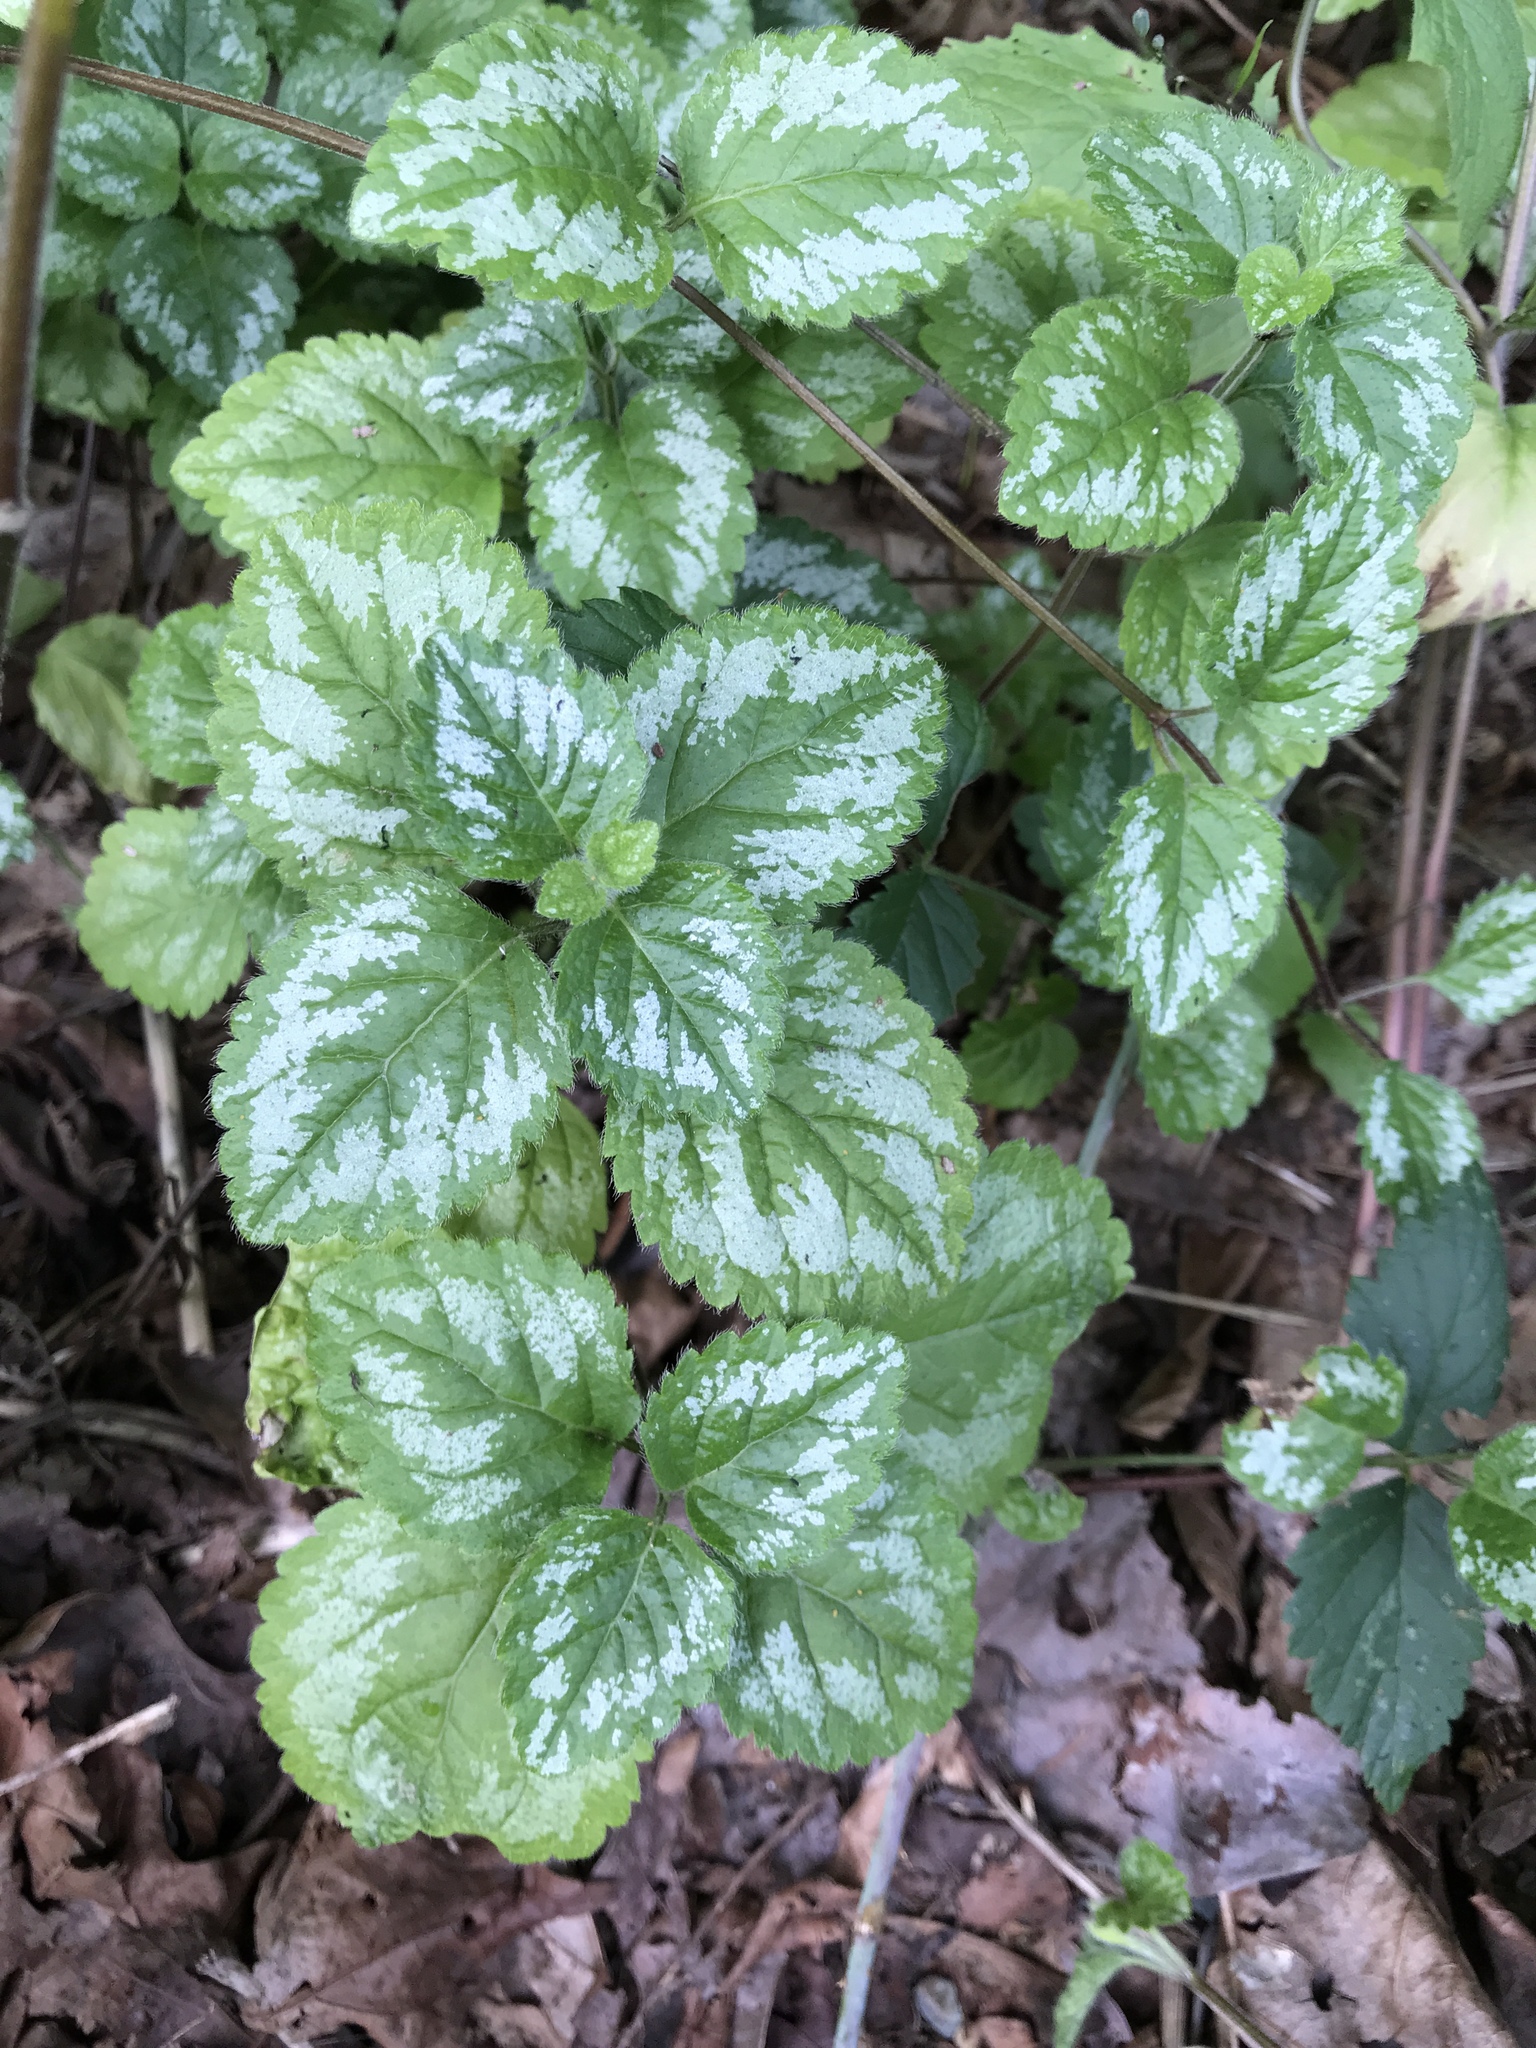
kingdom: Plantae
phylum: Tracheophyta
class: Magnoliopsida
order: Lamiales
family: Lamiaceae
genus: Lamium
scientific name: Lamium galeobdolon
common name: Yellow archangel
